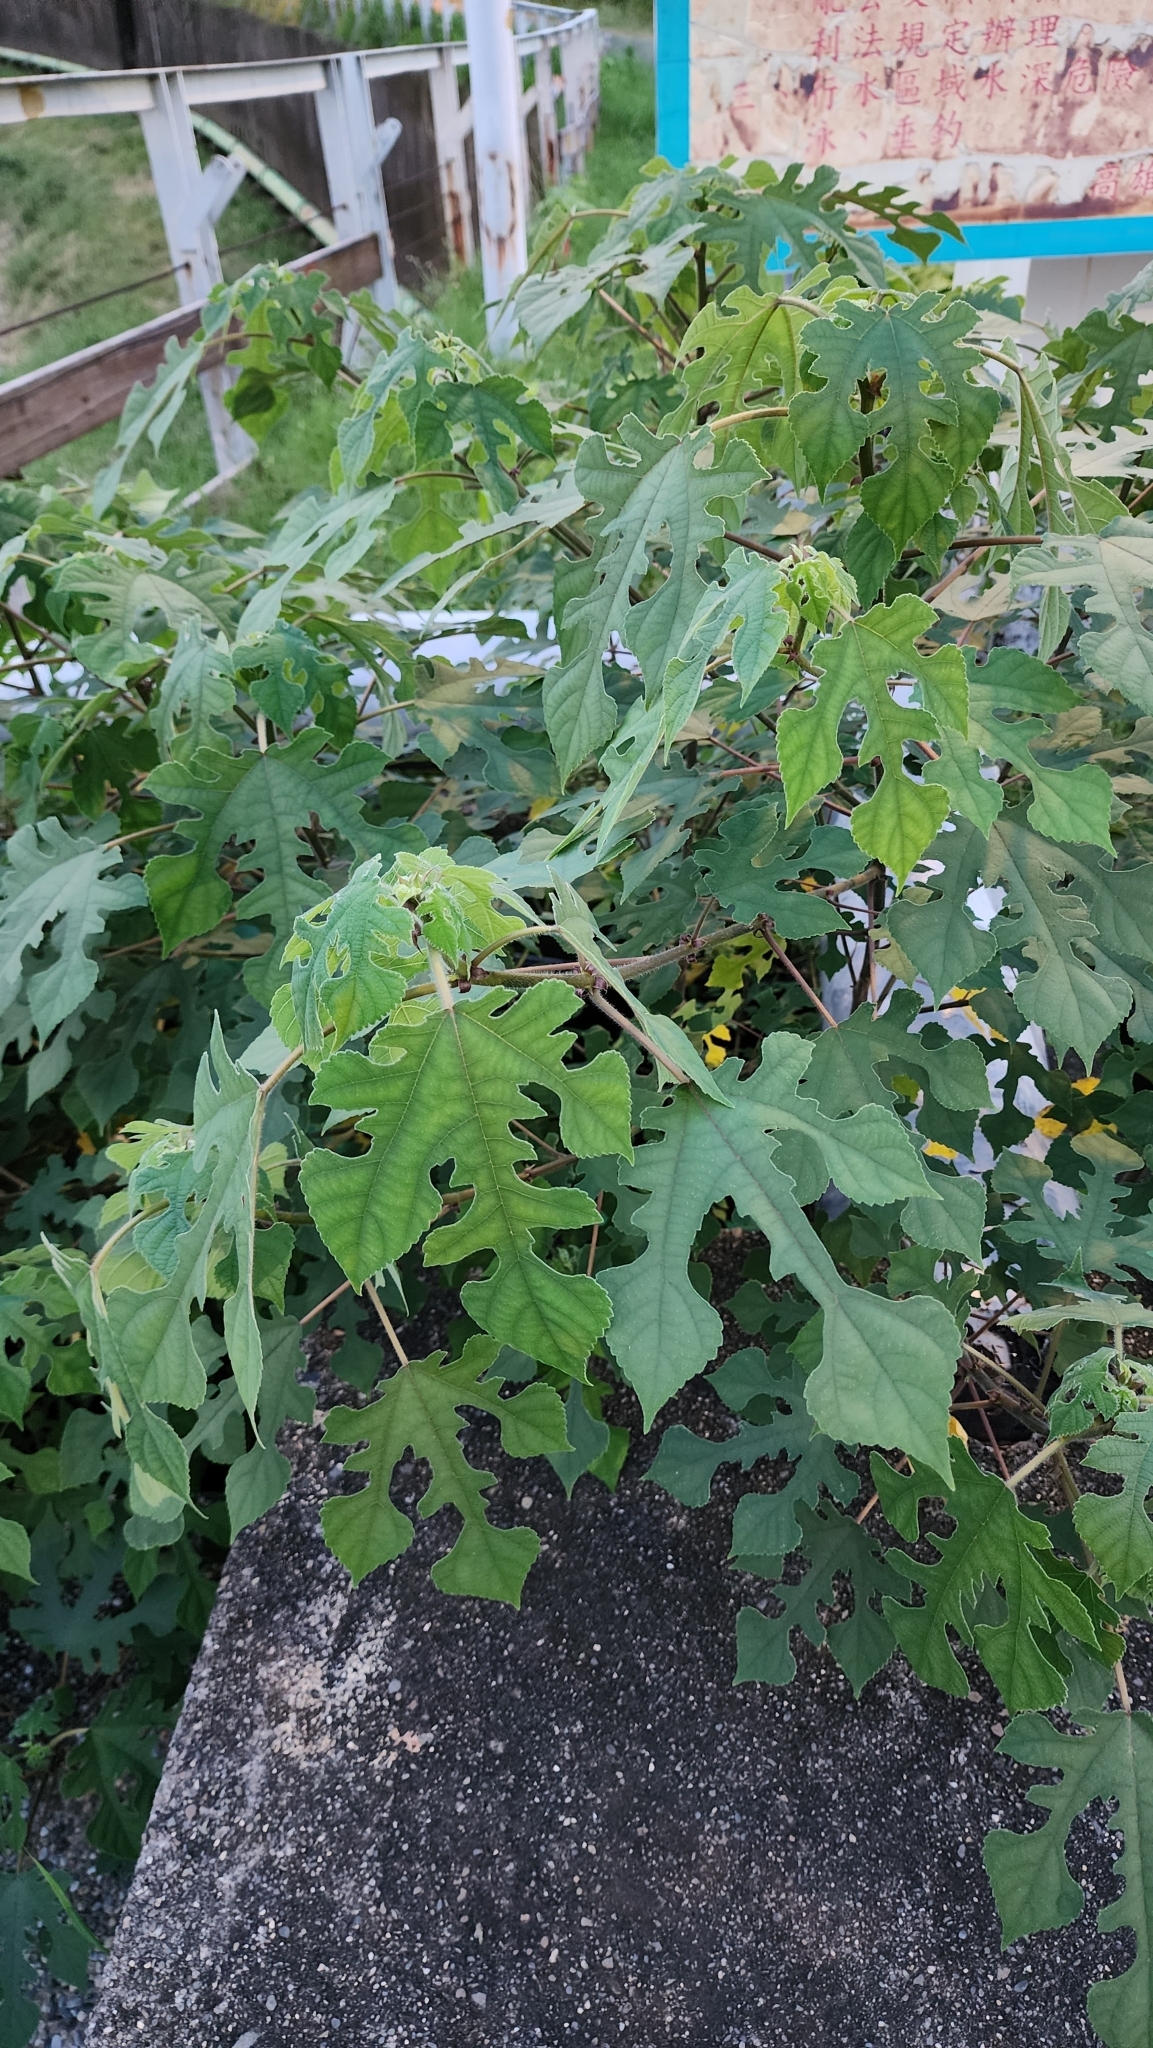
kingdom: Plantae
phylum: Tracheophyta
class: Magnoliopsida
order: Rosales
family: Moraceae
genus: Broussonetia
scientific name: Broussonetia papyrifera
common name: Paper mulberry
